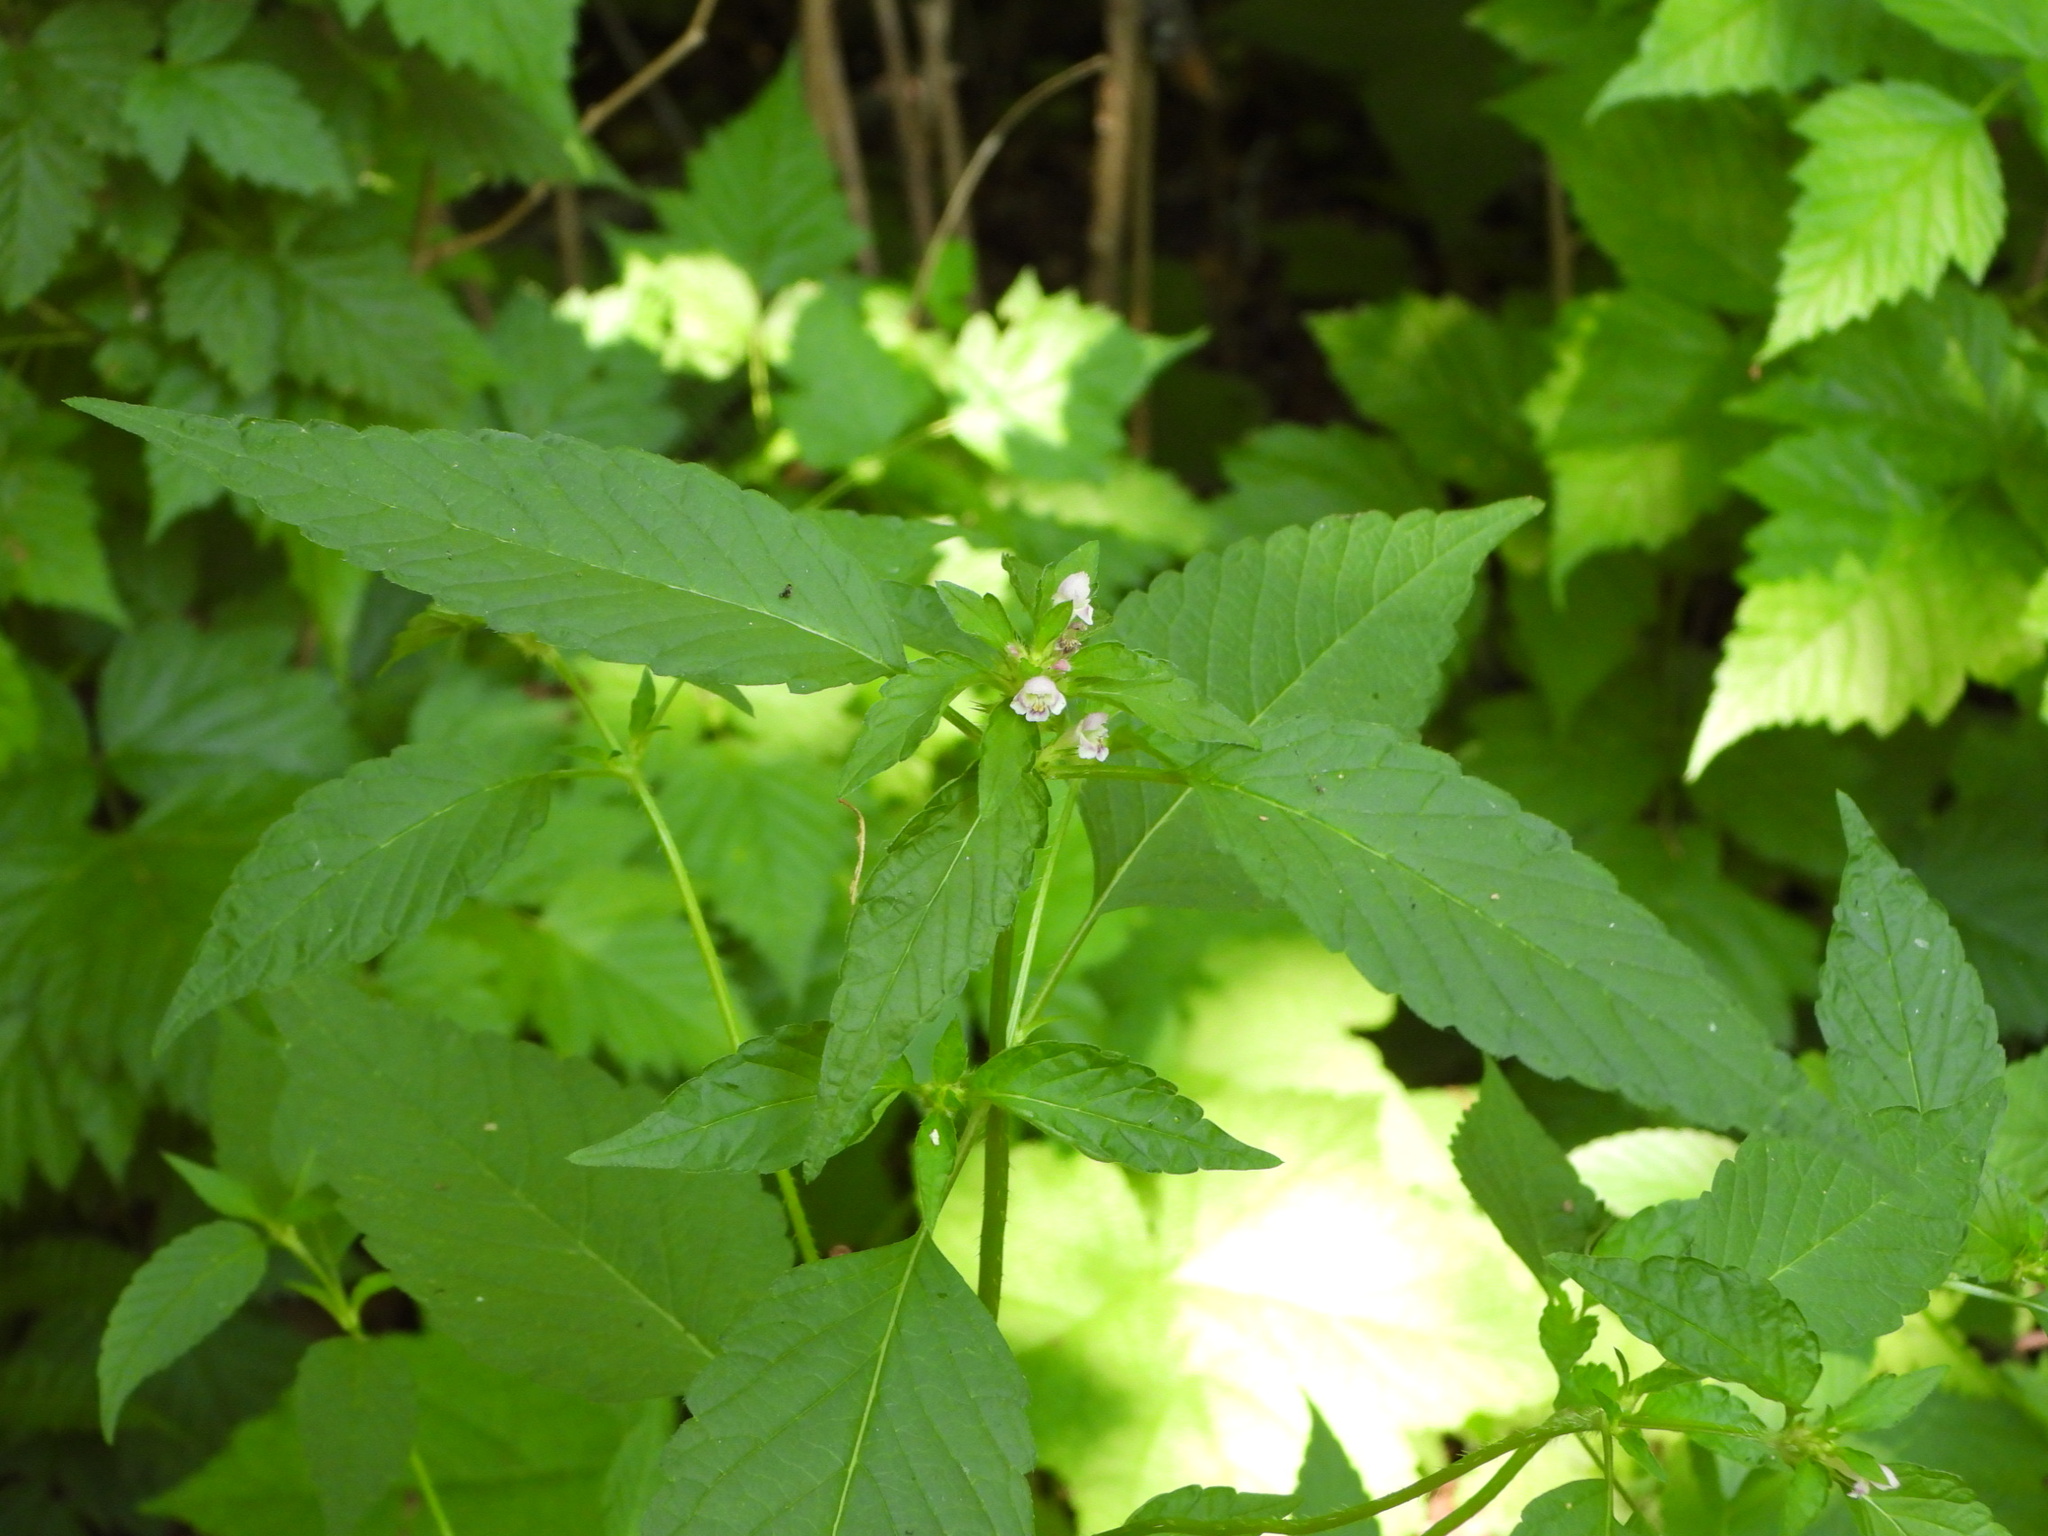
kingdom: Plantae
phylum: Tracheophyta
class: Magnoliopsida
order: Lamiales
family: Lamiaceae
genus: Galeopsis
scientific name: Galeopsis tetrahit
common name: Common hemp-nettle
